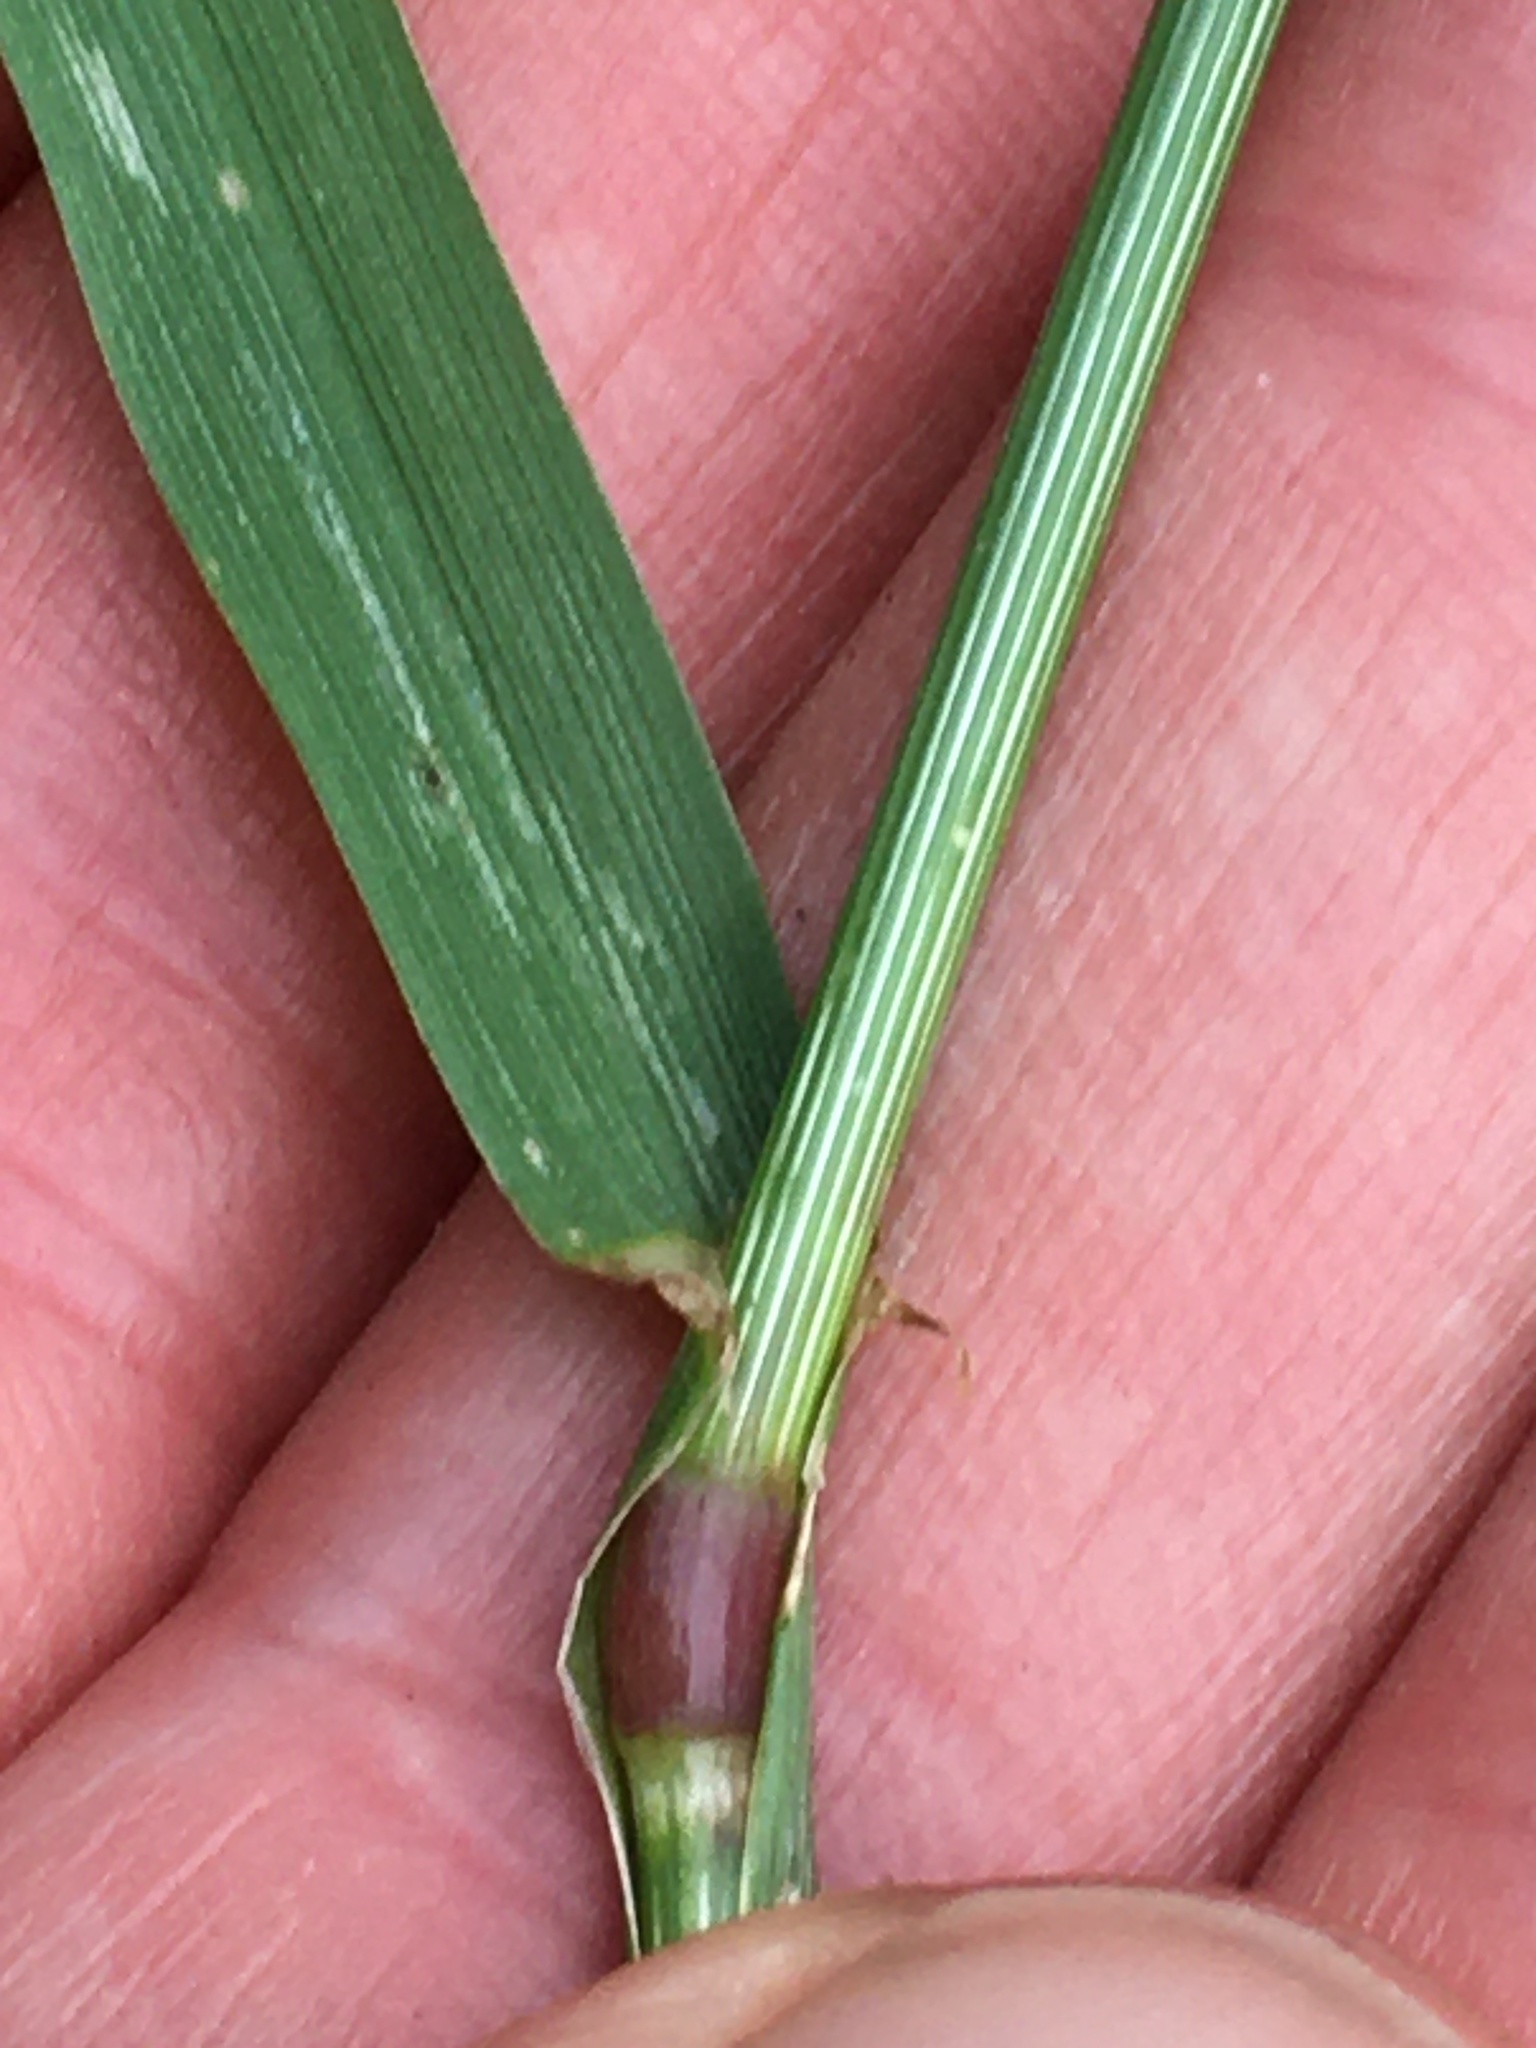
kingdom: Plantae
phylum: Tracheophyta
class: Liliopsida
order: Poales
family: Poaceae
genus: Lolium
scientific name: Lolium perenne
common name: Perennial ryegrass
